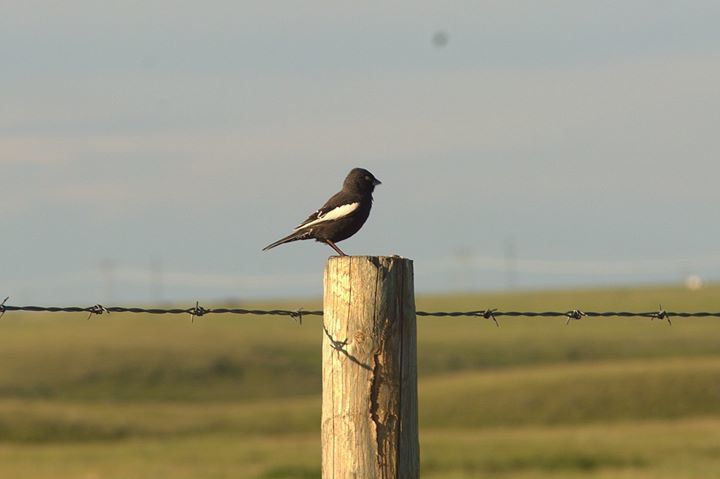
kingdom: Animalia
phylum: Chordata
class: Aves
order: Passeriformes
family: Passerellidae
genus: Calamospiza
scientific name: Calamospiza melanocorys
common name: Lark bunting
